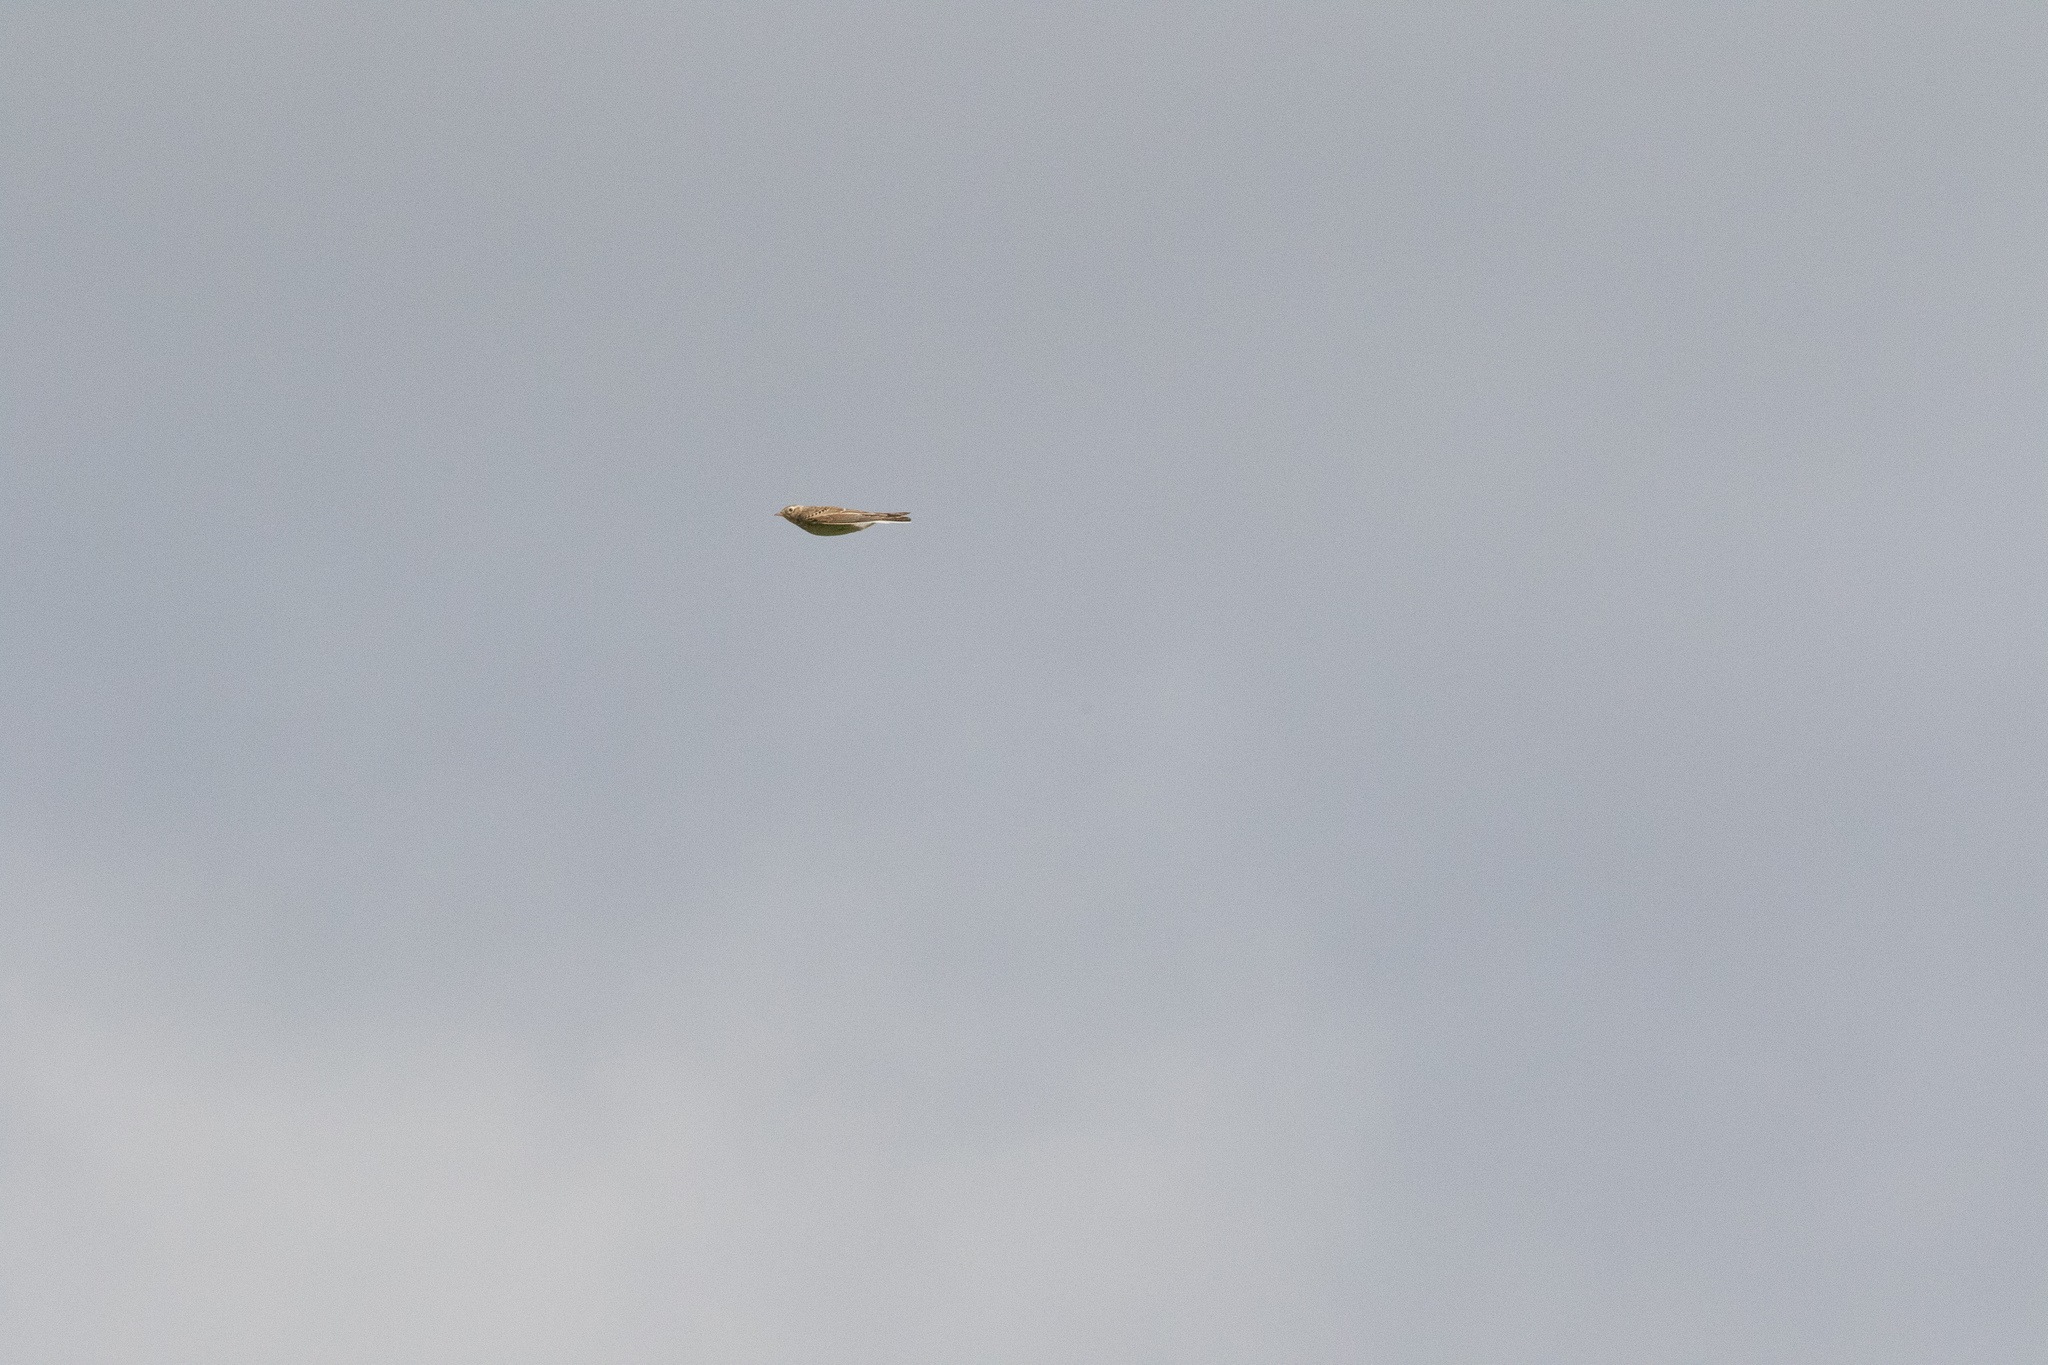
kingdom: Animalia
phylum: Chordata
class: Aves
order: Passeriformes
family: Alaudidae
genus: Alauda
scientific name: Alauda arvensis
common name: Eurasian skylark
